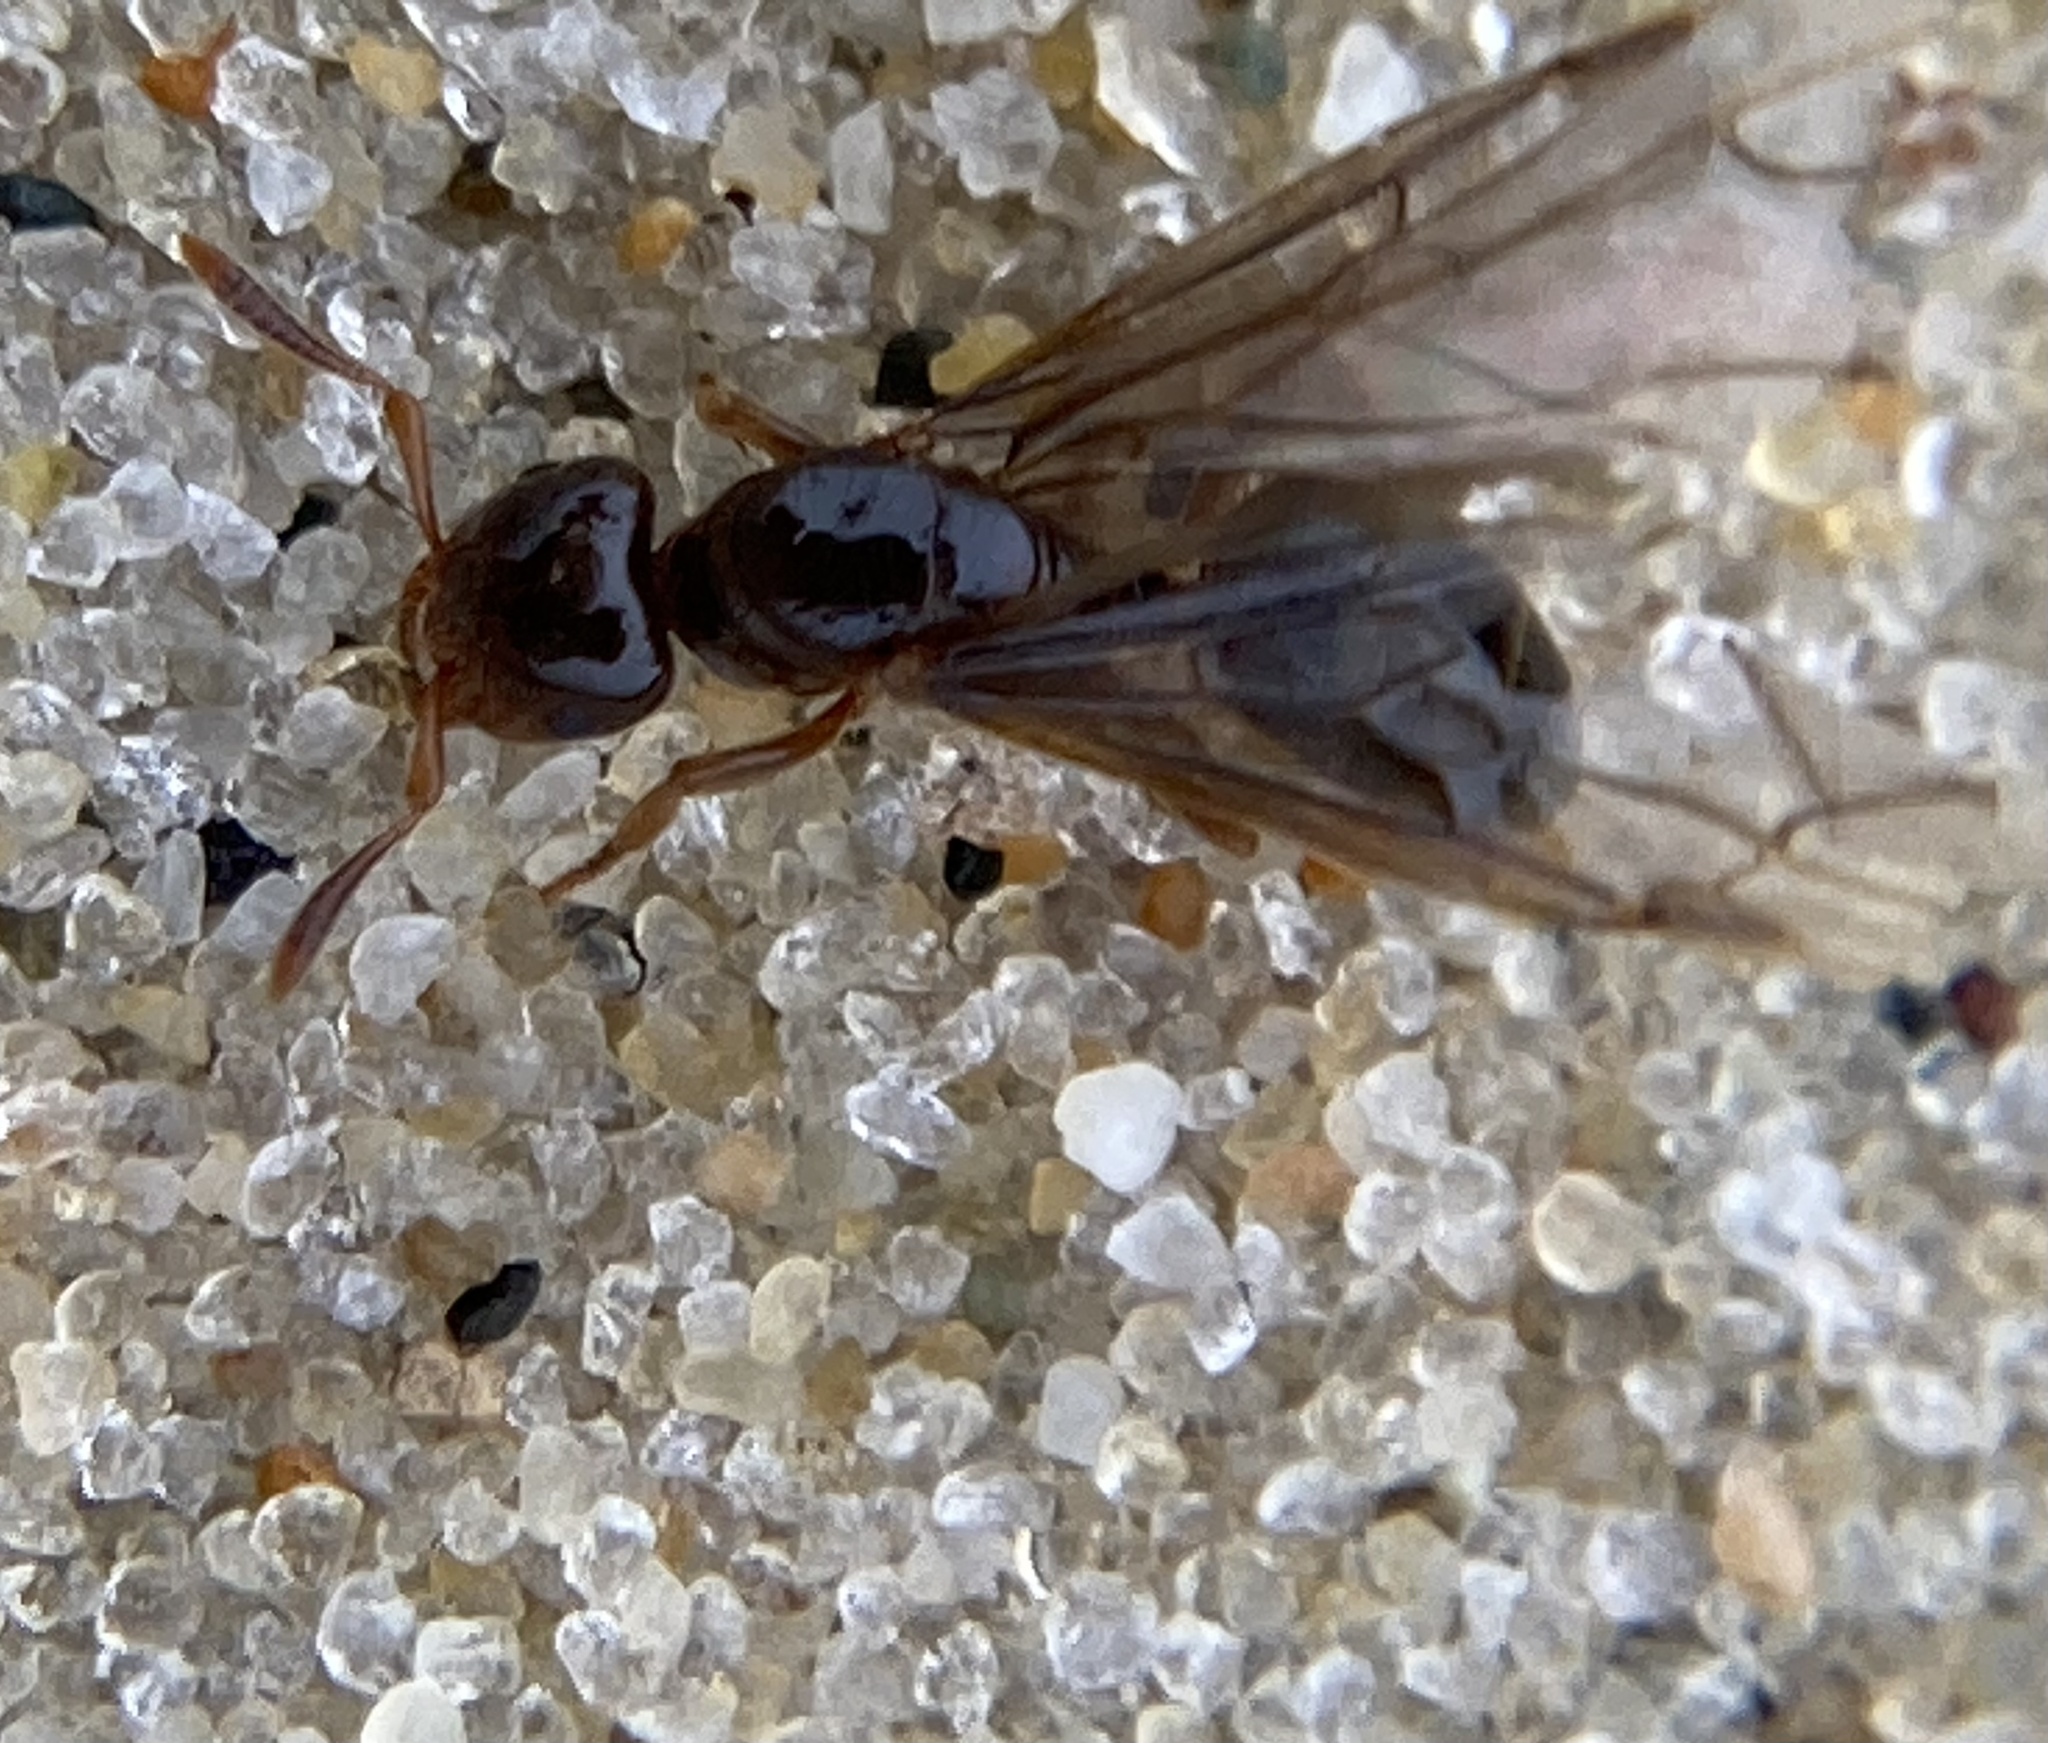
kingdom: Animalia
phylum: Arthropoda
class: Insecta
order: Hymenoptera
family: Formicidae
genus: Lasius
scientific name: Lasius claviger
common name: Common citronella ant
